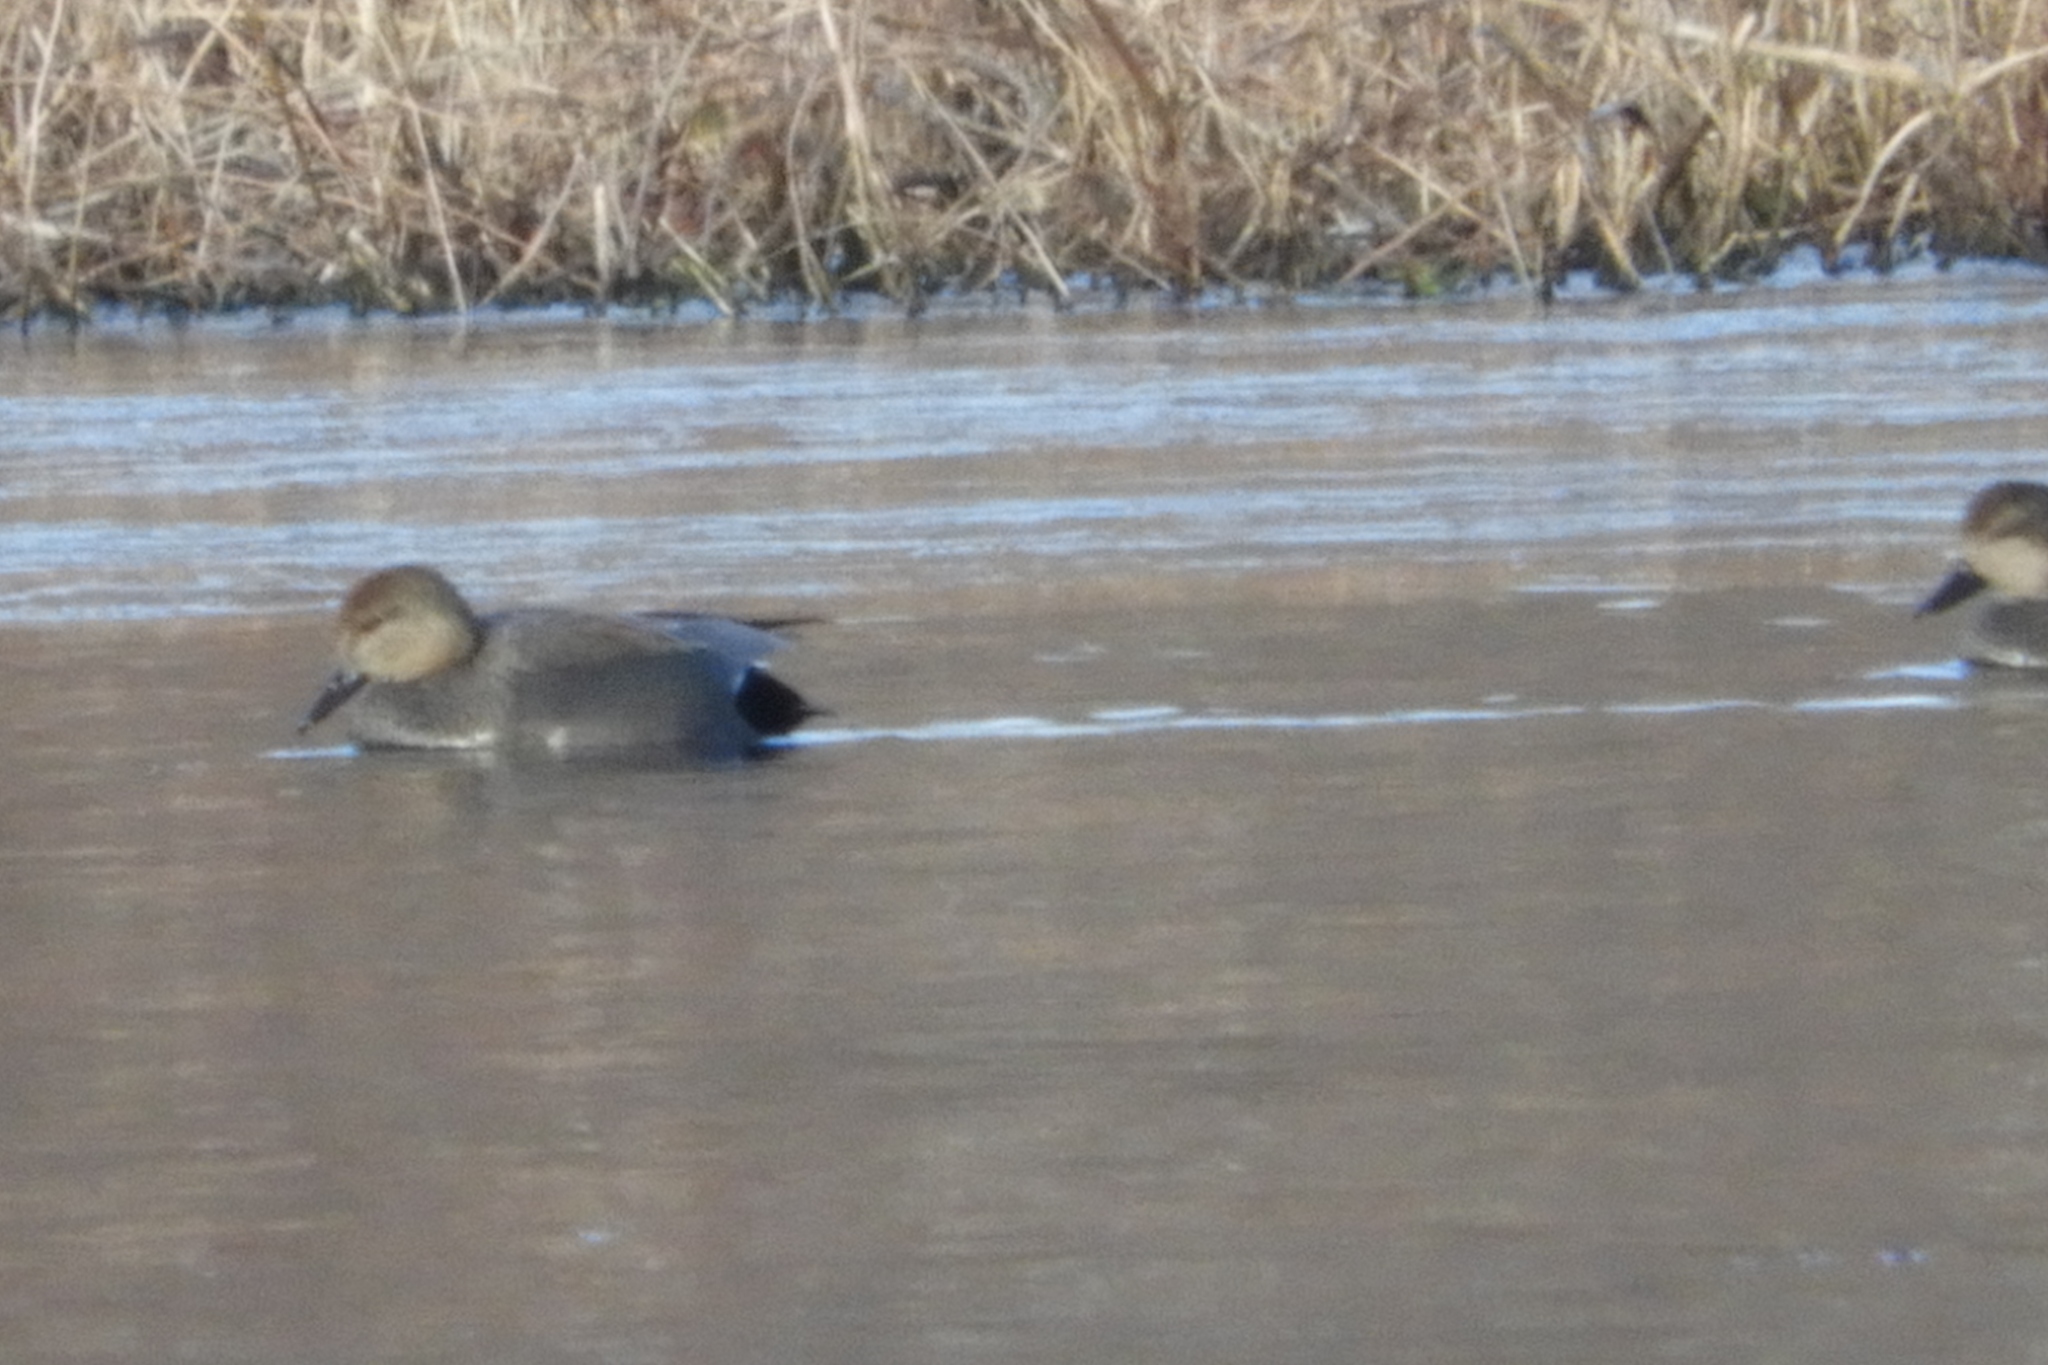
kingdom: Animalia
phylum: Chordata
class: Aves
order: Anseriformes
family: Anatidae
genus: Mareca
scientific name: Mareca strepera
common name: Gadwall
